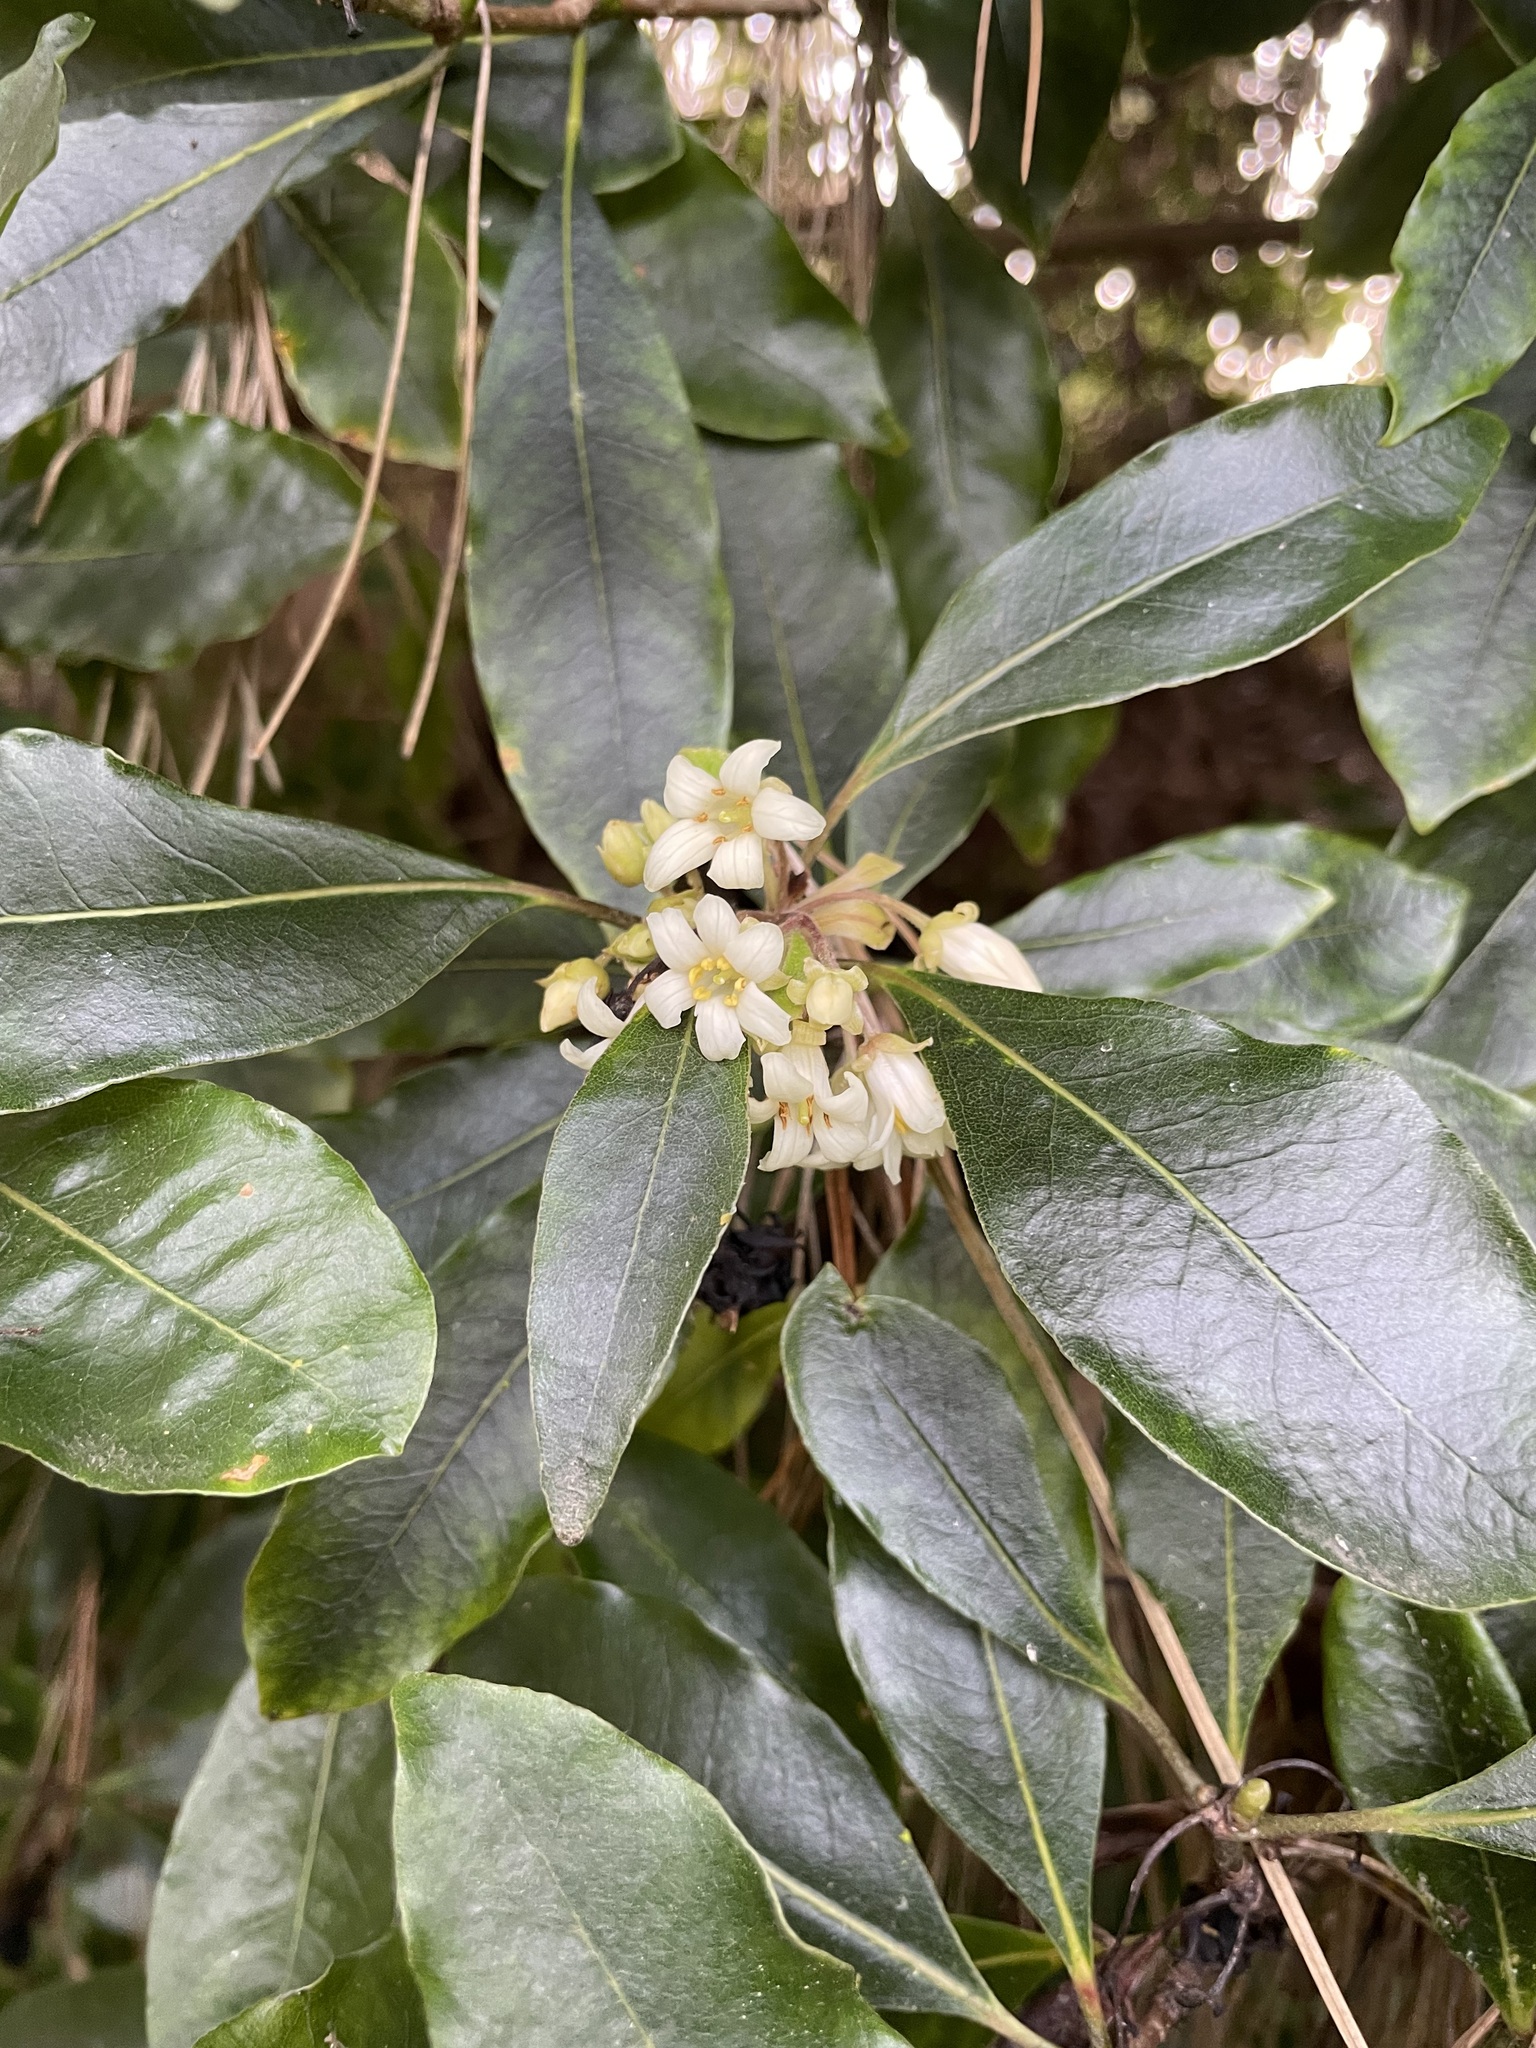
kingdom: Plantae
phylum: Tracheophyta
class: Magnoliopsida
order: Apiales
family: Pittosporaceae
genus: Pittosporum
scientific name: Pittosporum undulatum
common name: Australian cheesewood
